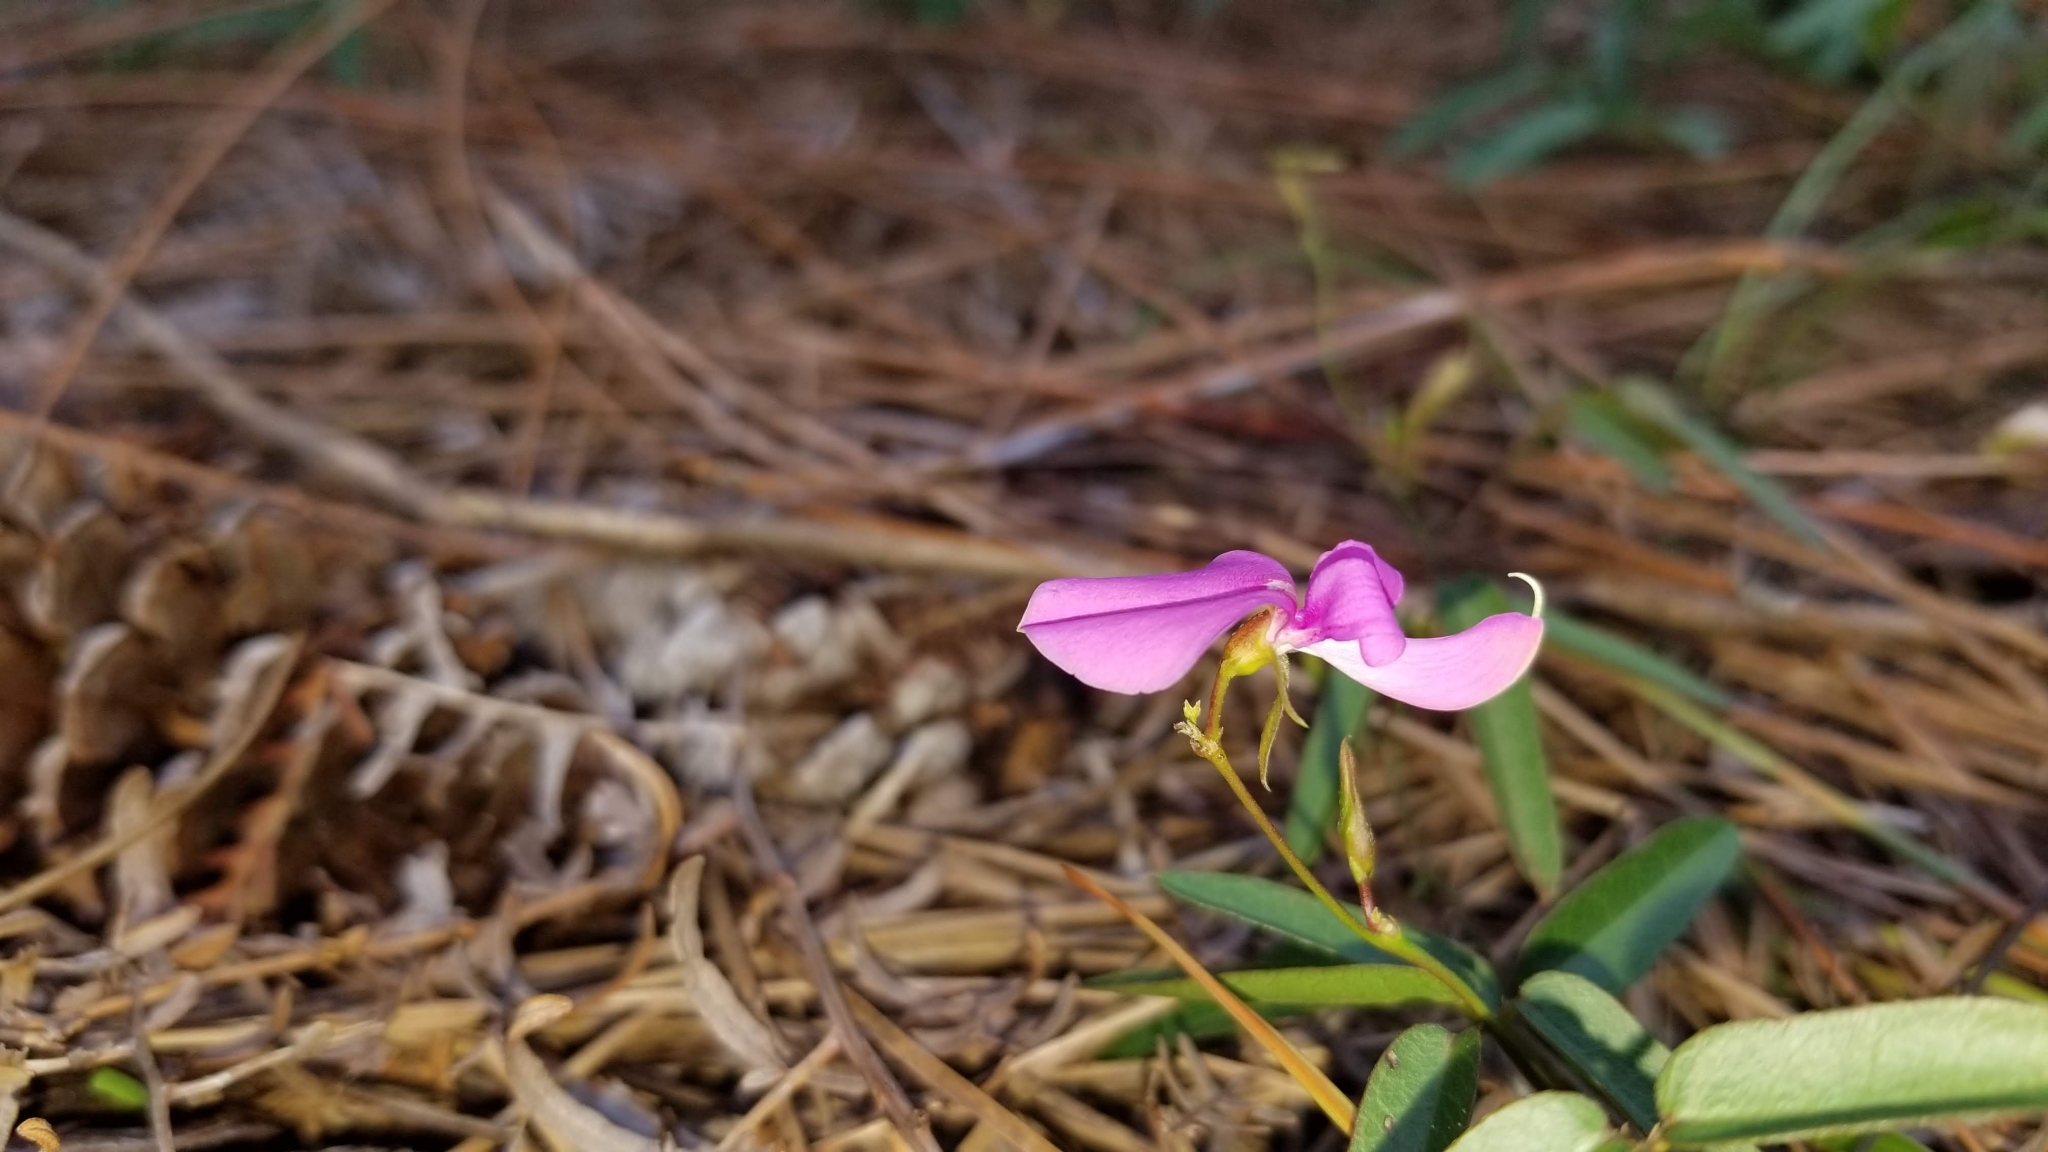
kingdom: Plantae
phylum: Tracheophyta
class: Magnoliopsida
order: Fabales
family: Fabaceae
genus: Galactia
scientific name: Galactia pinetorum
